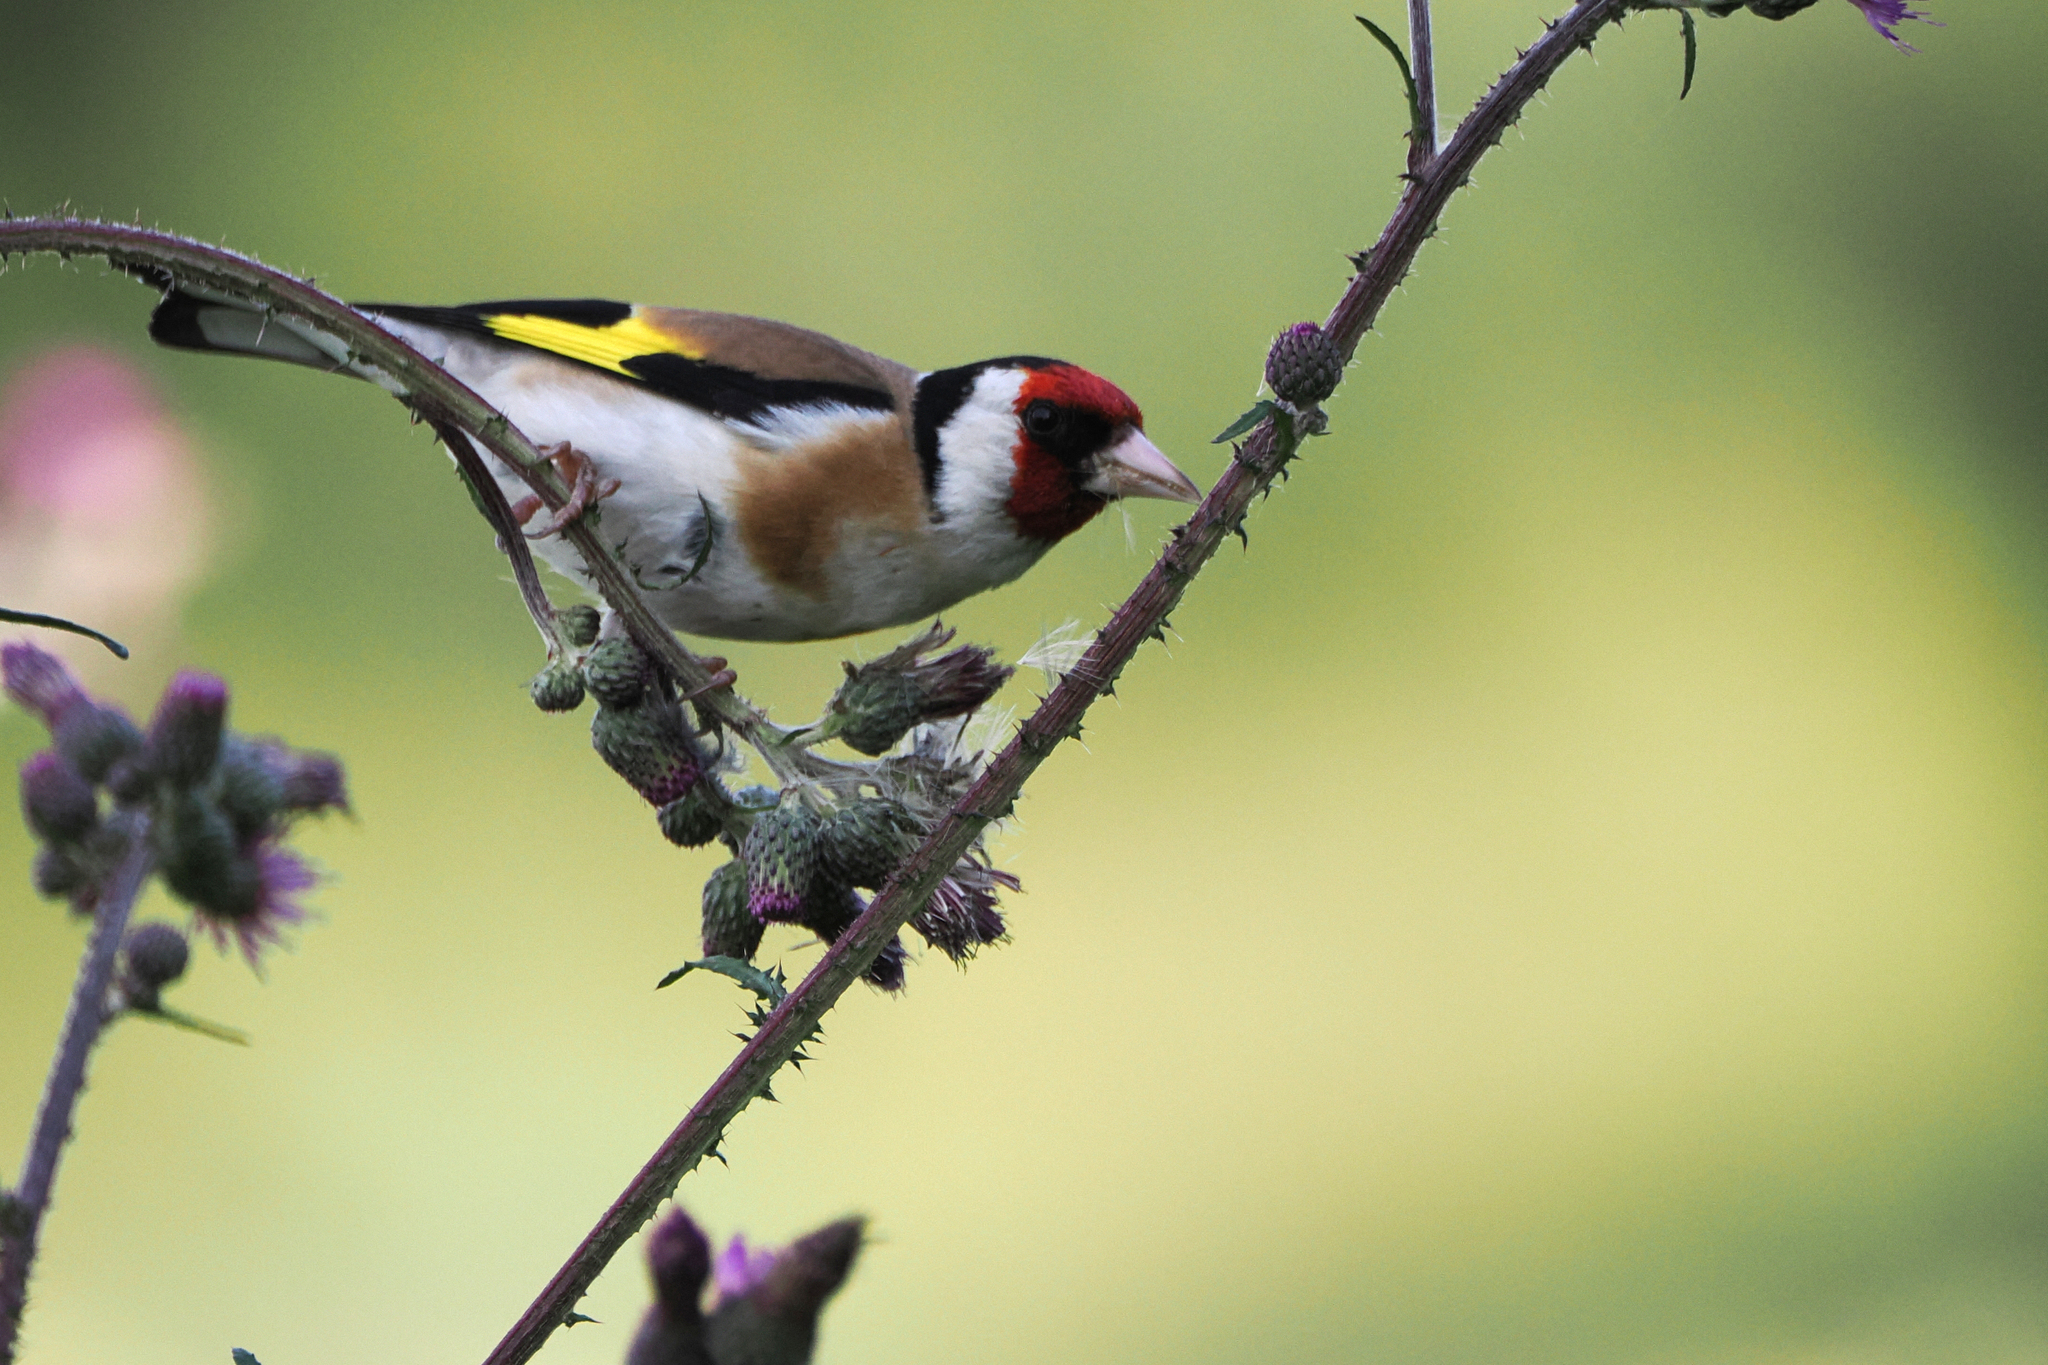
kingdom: Animalia
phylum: Chordata
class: Aves
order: Passeriformes
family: Fringillidae
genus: Carduelis
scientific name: Carduelis carduelis
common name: European goldfinch
